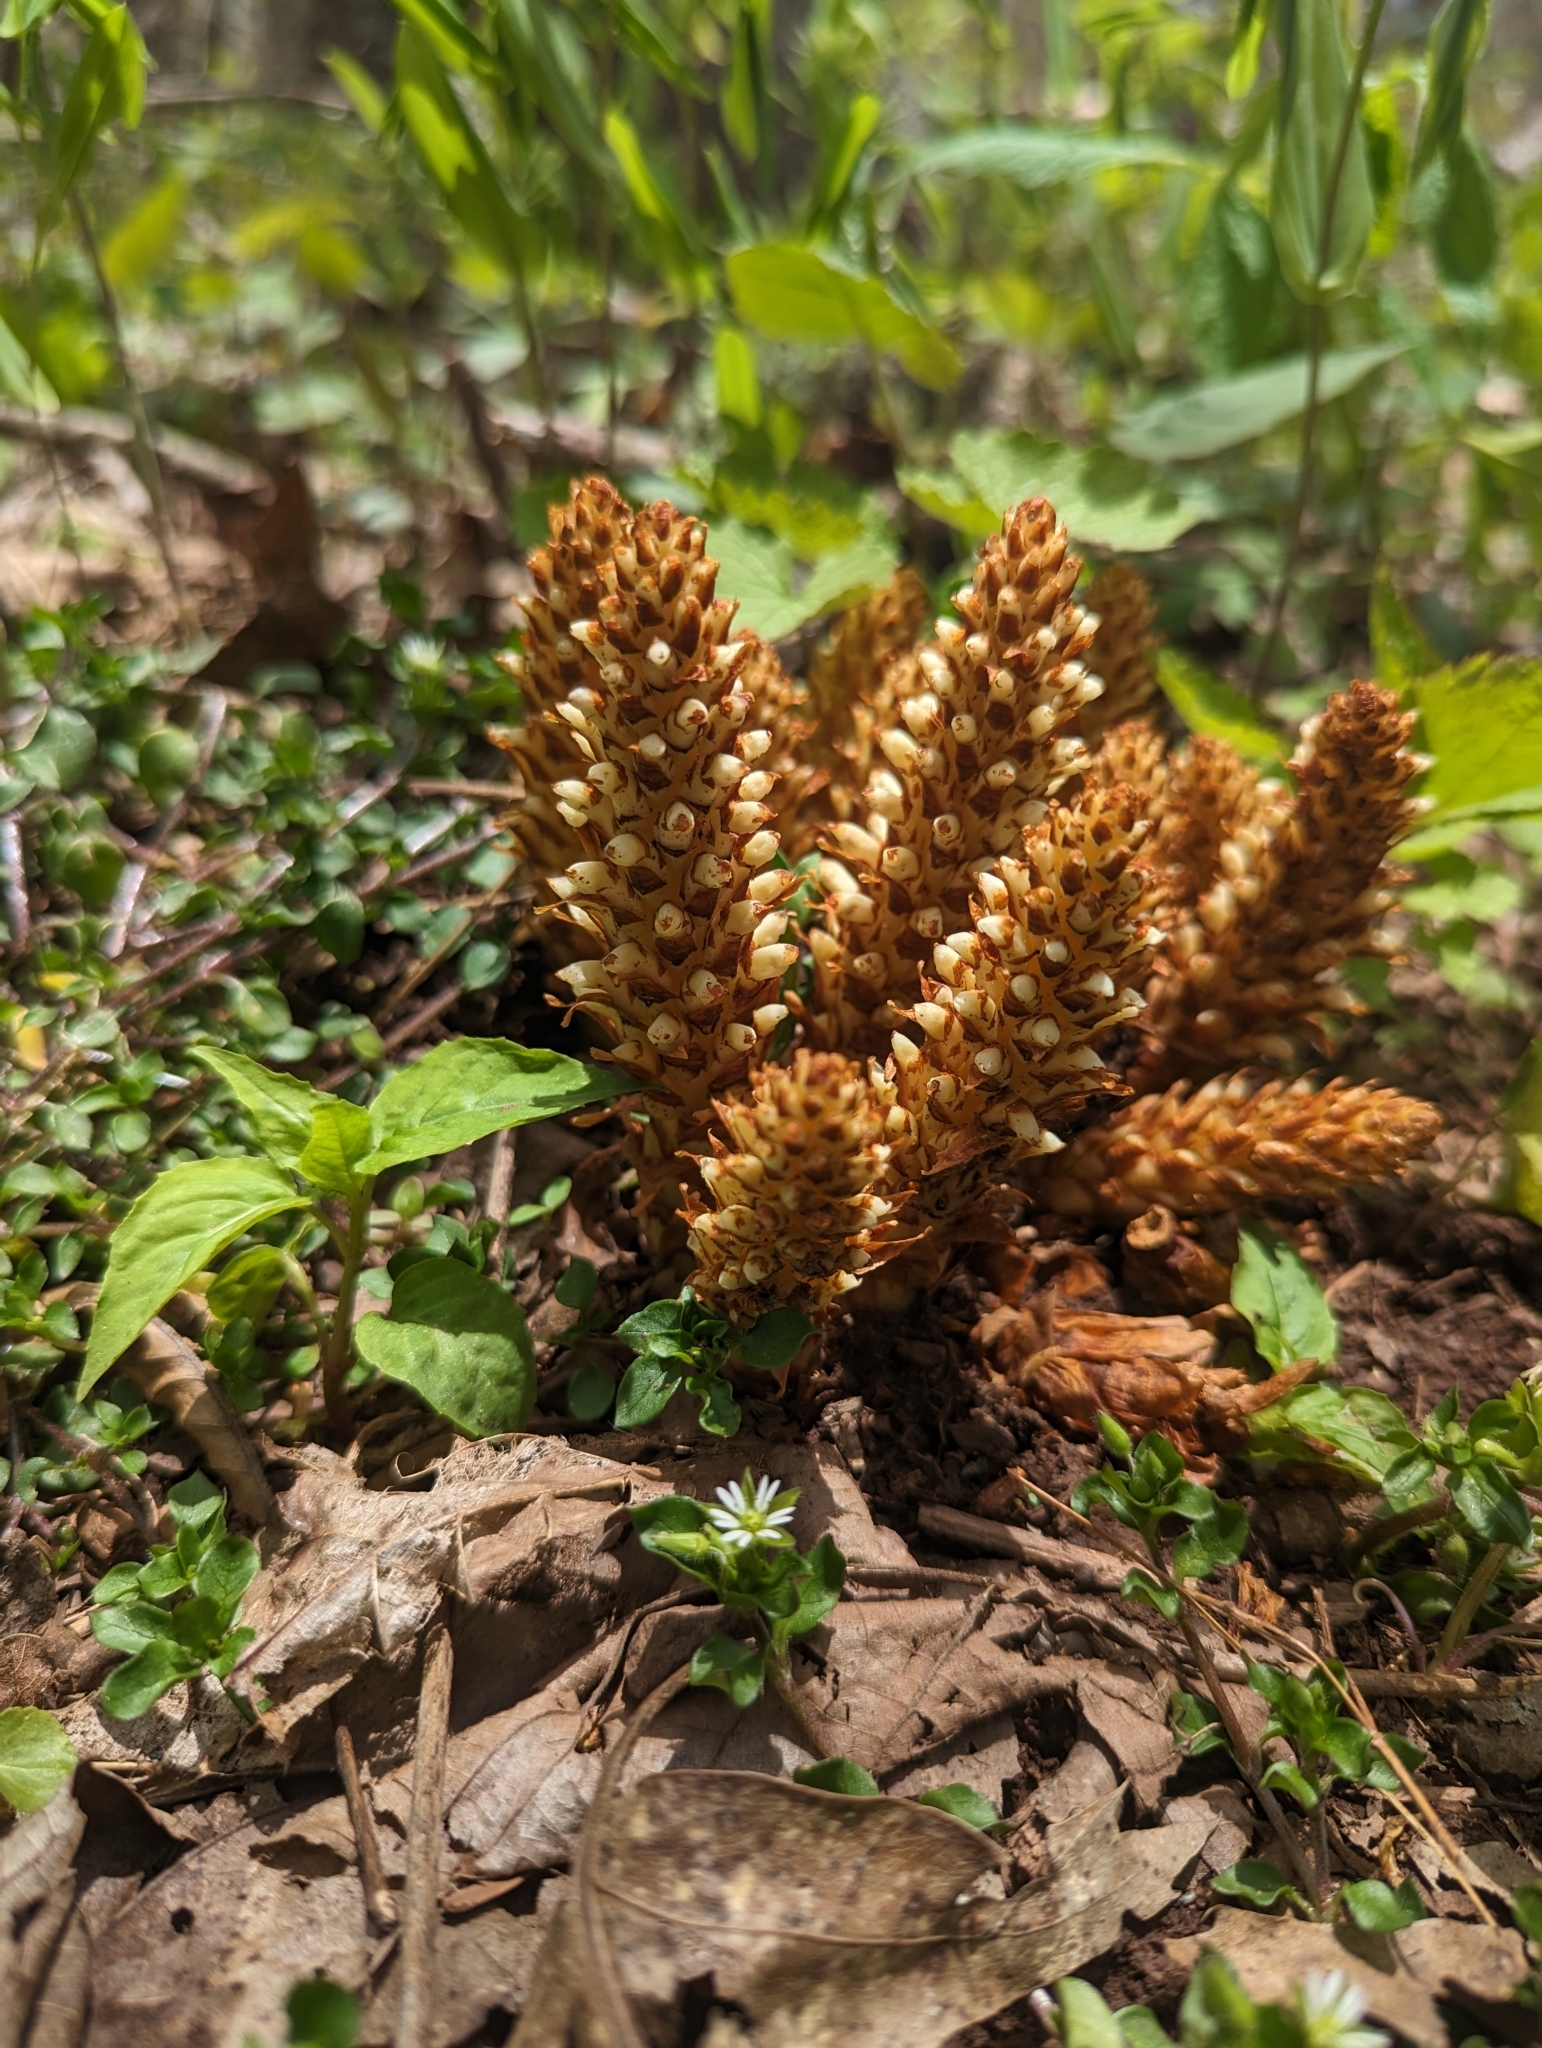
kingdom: Plantae
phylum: Tracheophyta
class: Magnoliopsida
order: Lamiales
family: Orobanchaceae
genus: Conopholis
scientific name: Conopholis americana
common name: American cancer-root
